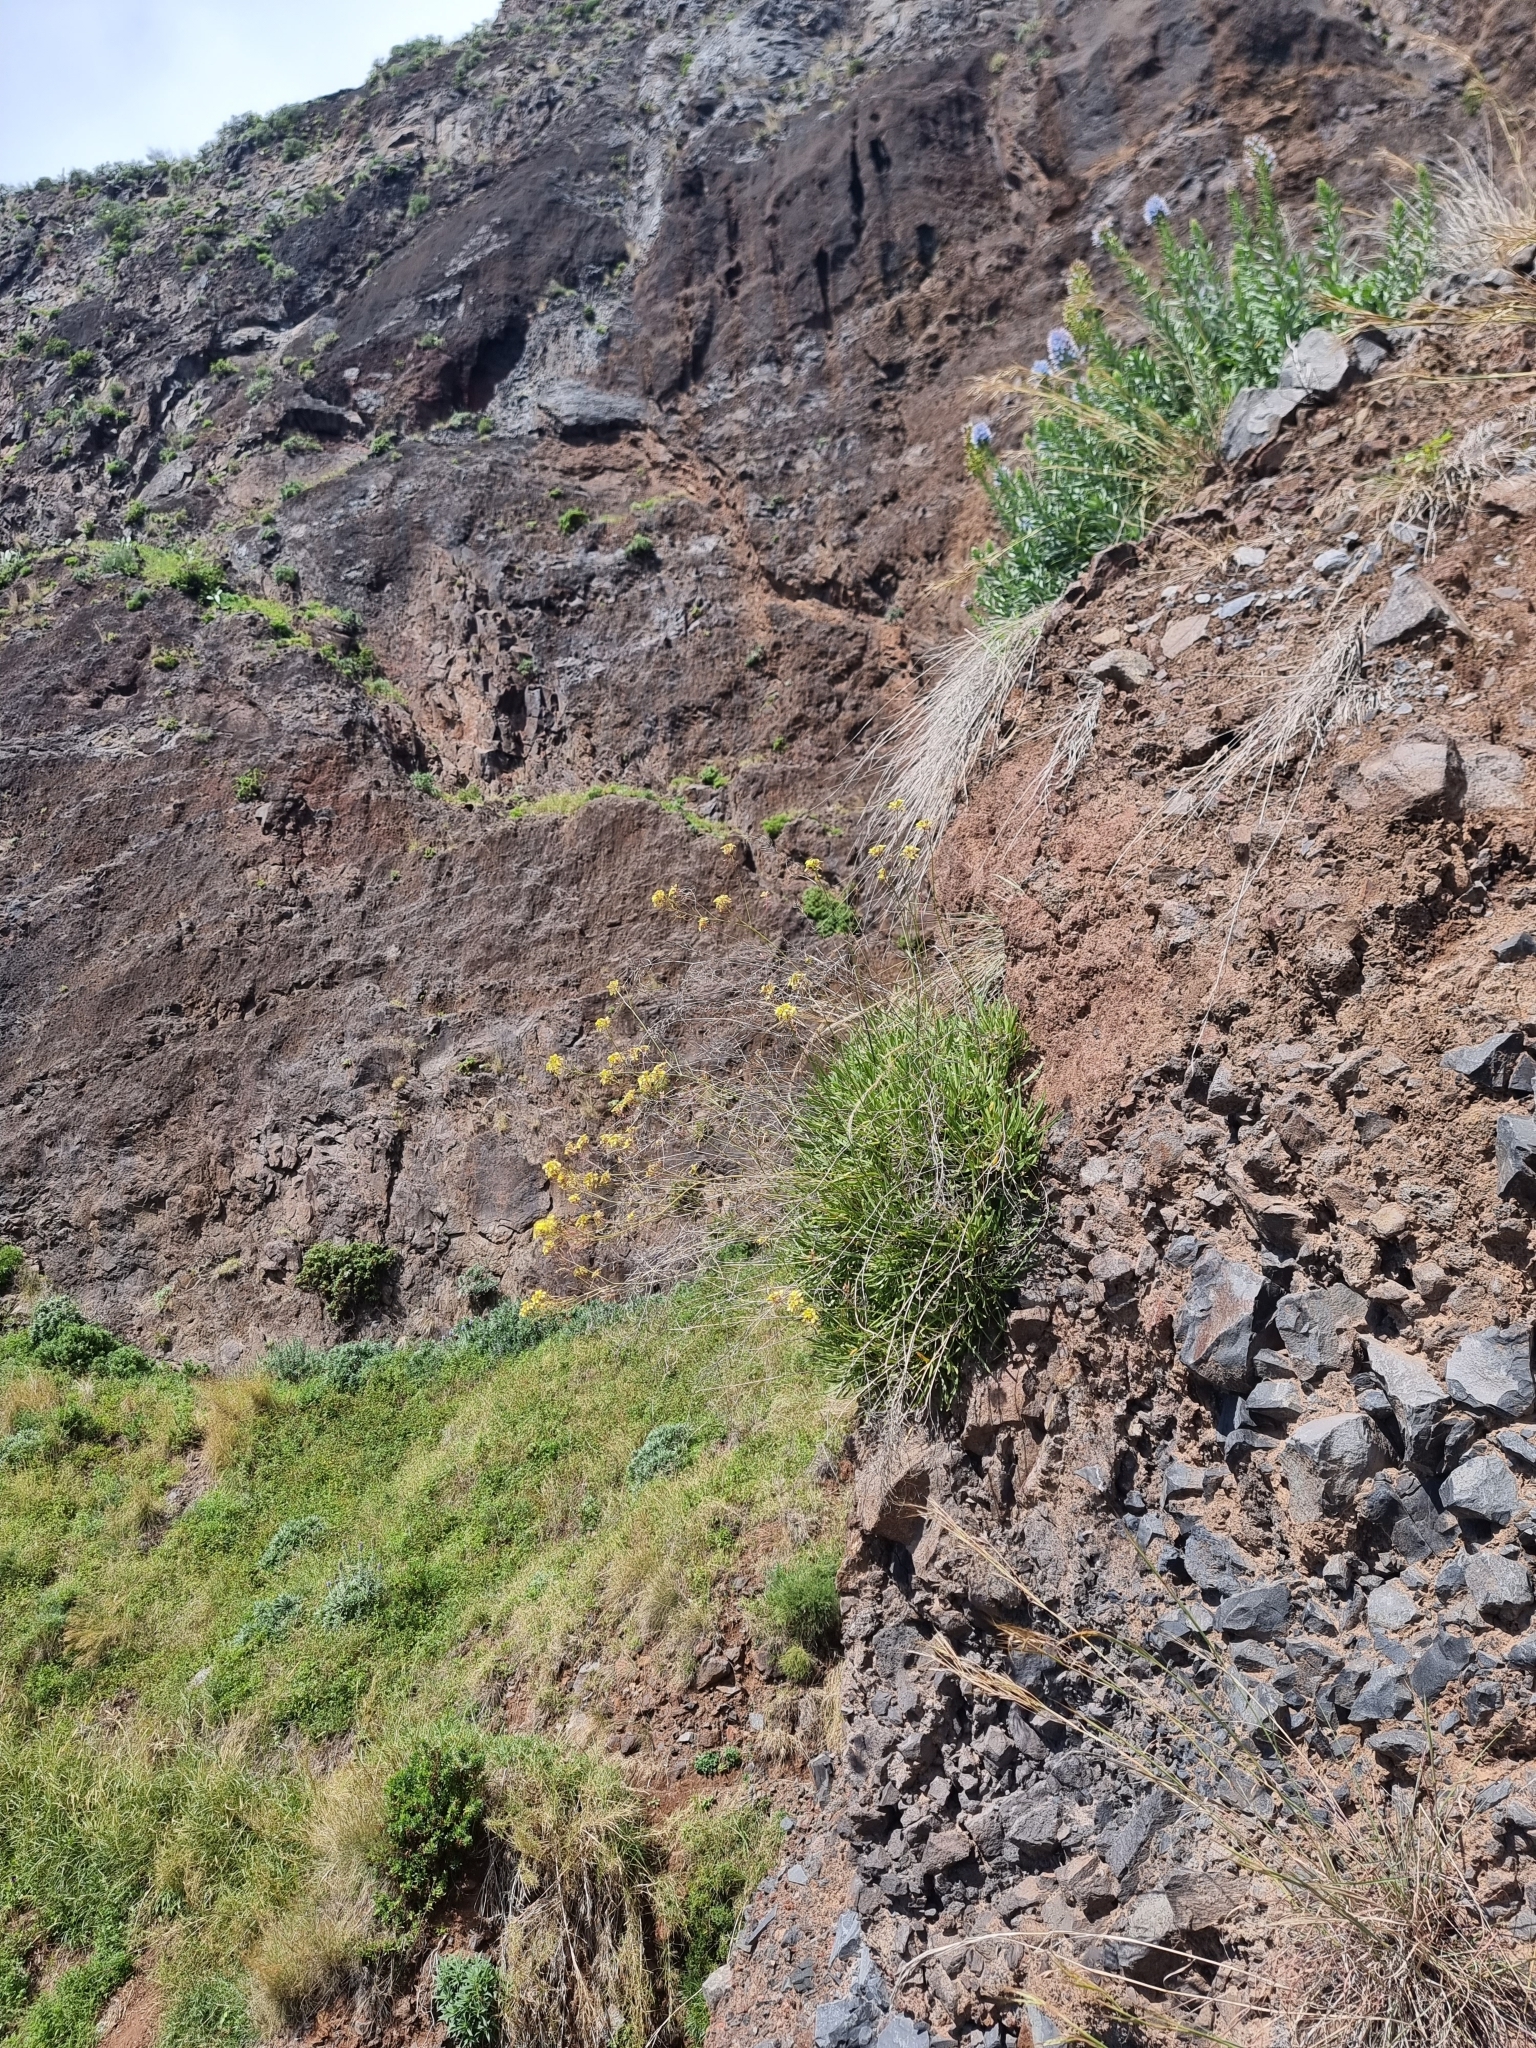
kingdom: Plantae
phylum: Tracheophyta
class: Magnoliopsida
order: Brassicales
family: Brassicaceae
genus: Sinapidendron
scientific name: Sinapidendron angustifolium
